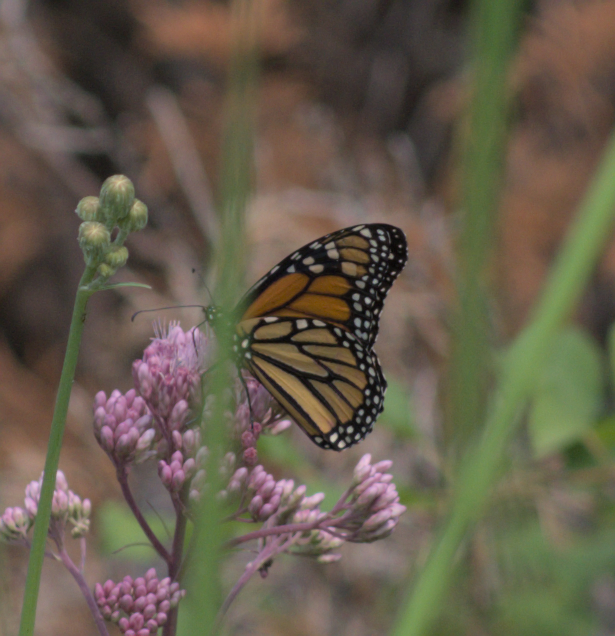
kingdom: Animalia
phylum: Arthropoda
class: Insecta
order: Lepidoptera
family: Nymphalidae
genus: Danaus
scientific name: Danaus plexippus
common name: Monarch
